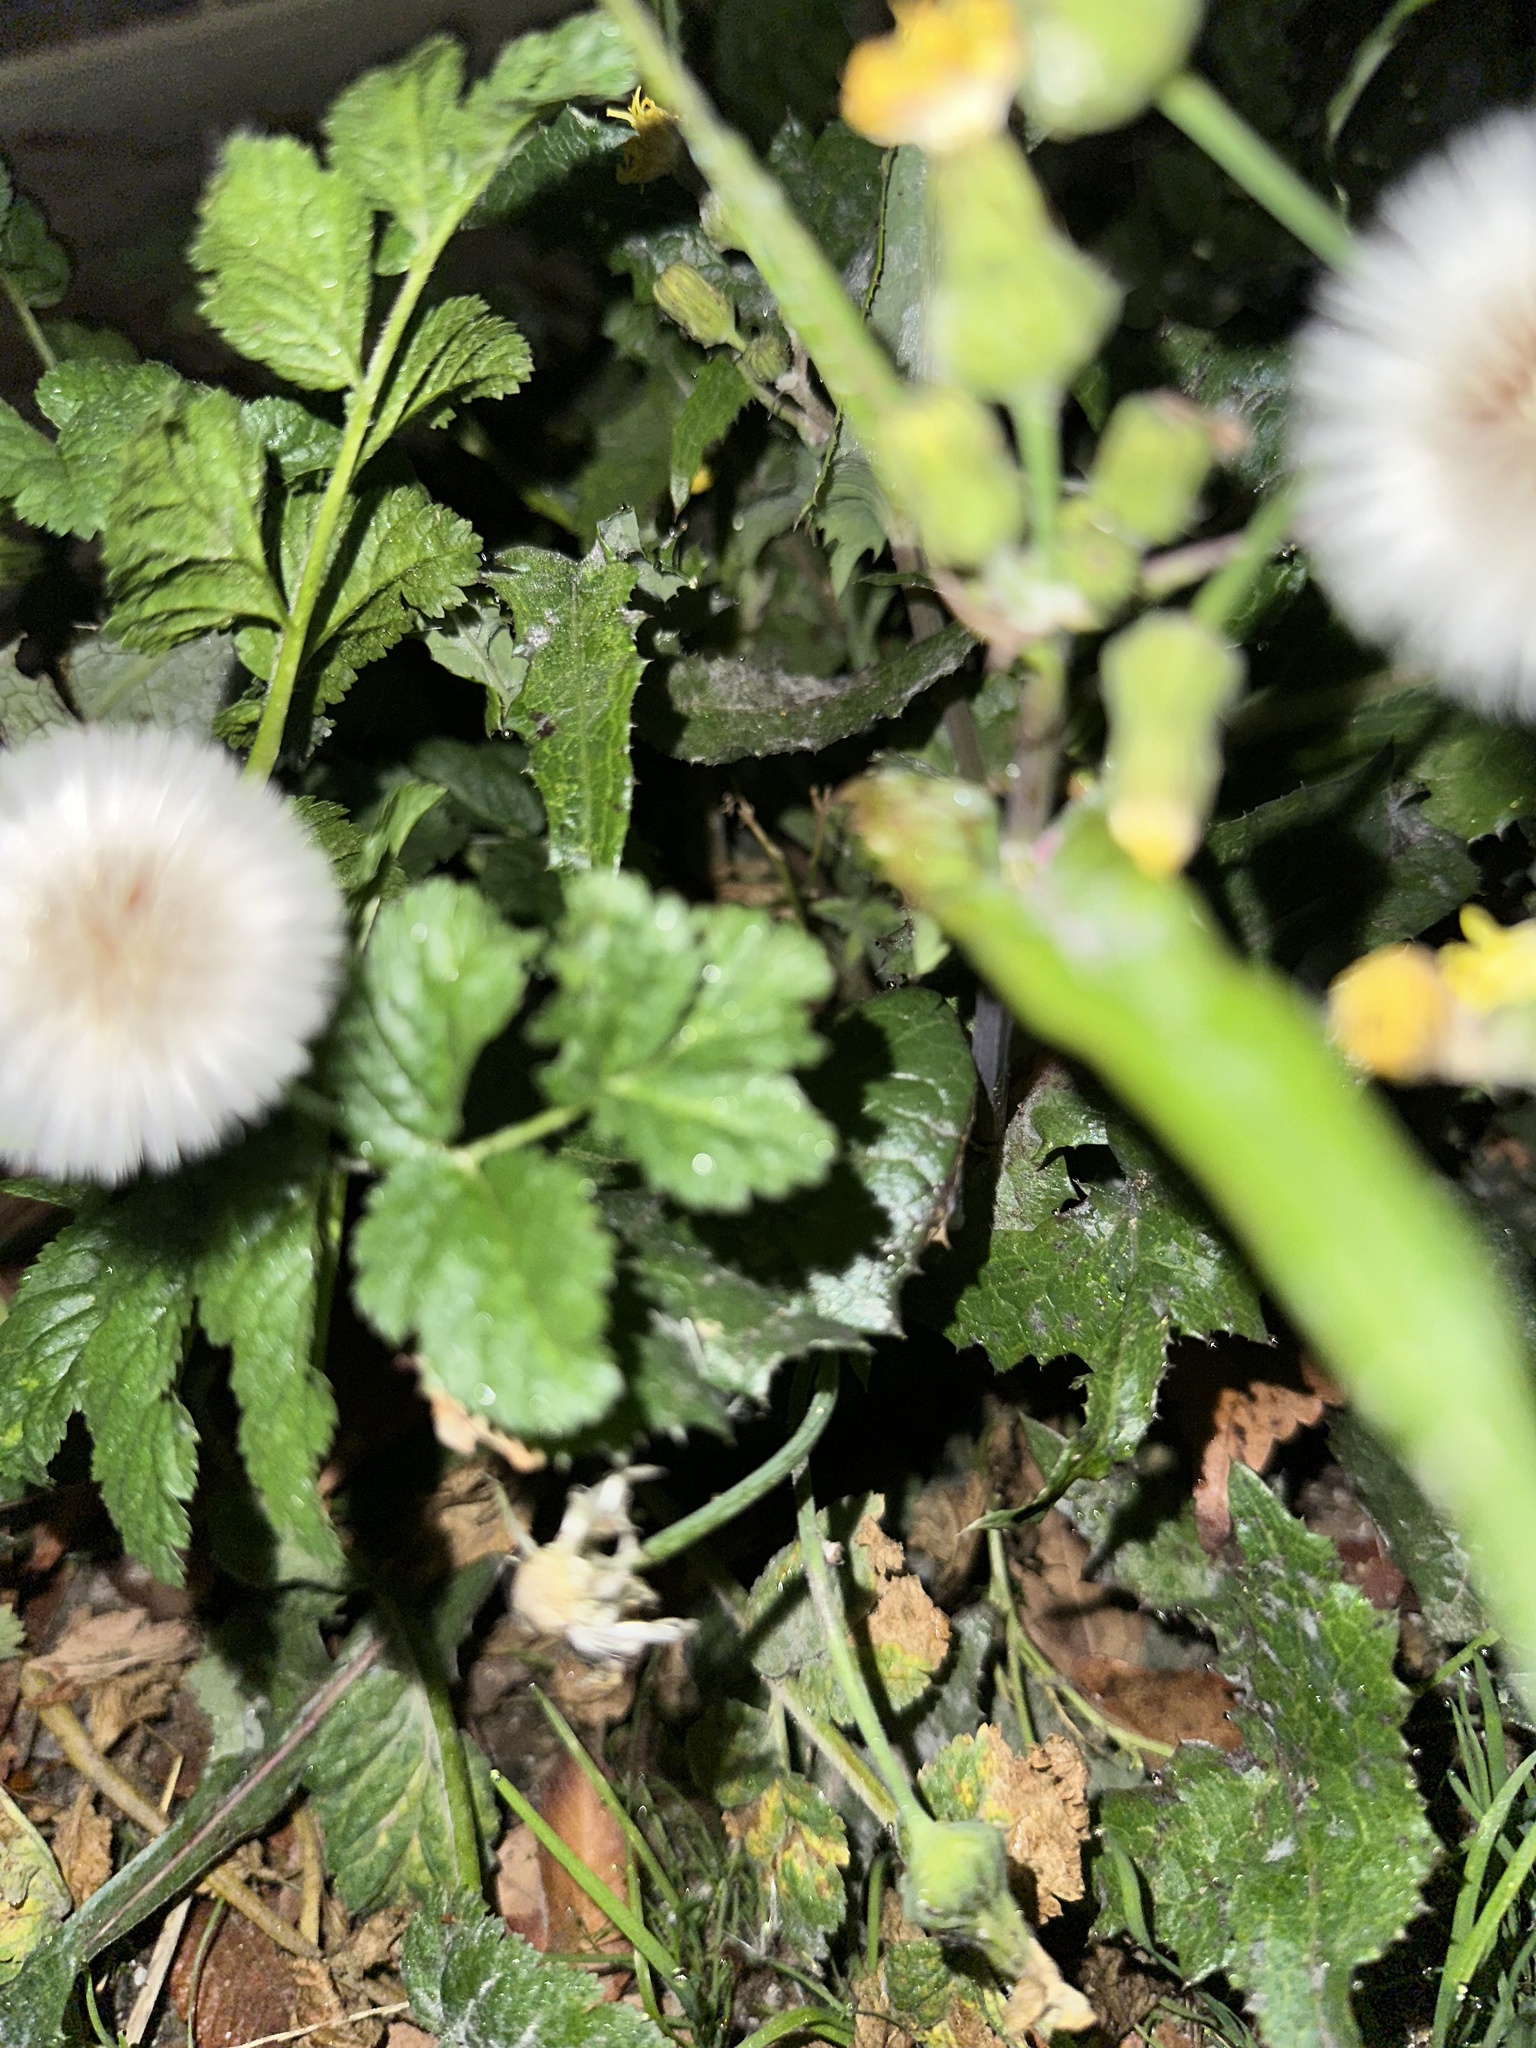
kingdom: Plantae
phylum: Tracheophyta
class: Magnoliopsida
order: Asterales
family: Asteraceae
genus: Sonchus
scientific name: Sonchus oleraceus
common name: Common sowthistle
